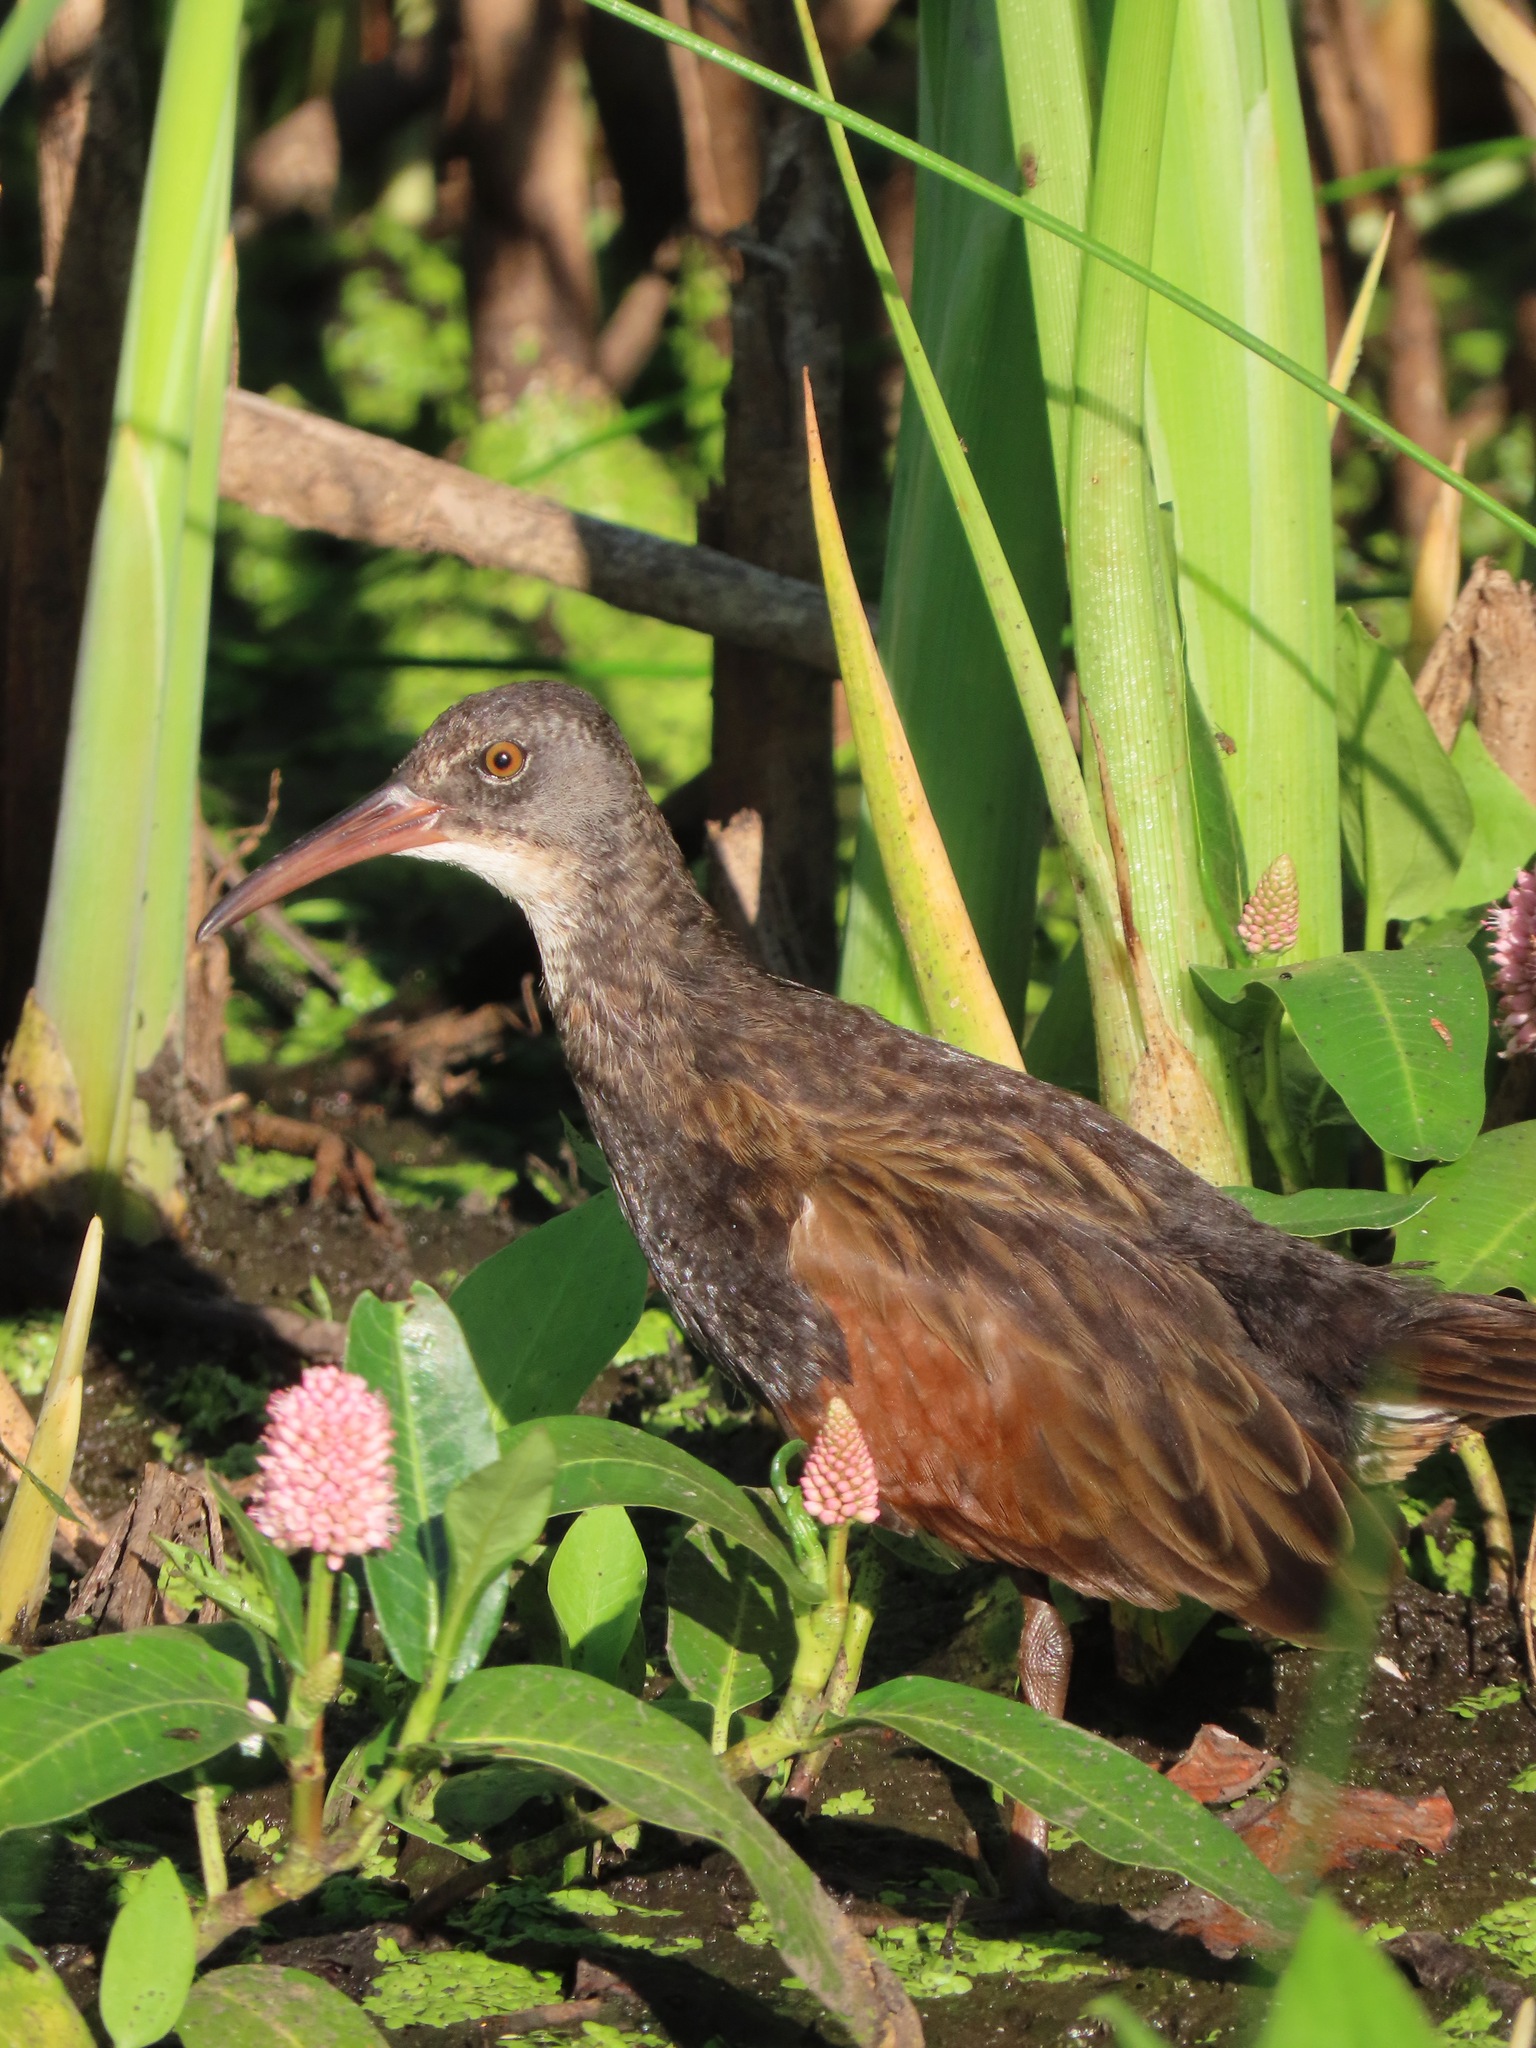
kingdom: Animalia
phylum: Chordata
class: Aves
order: Gruiformes
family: Rallidae
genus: Rallus
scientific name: Rallus limicola
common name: Virginia rail
